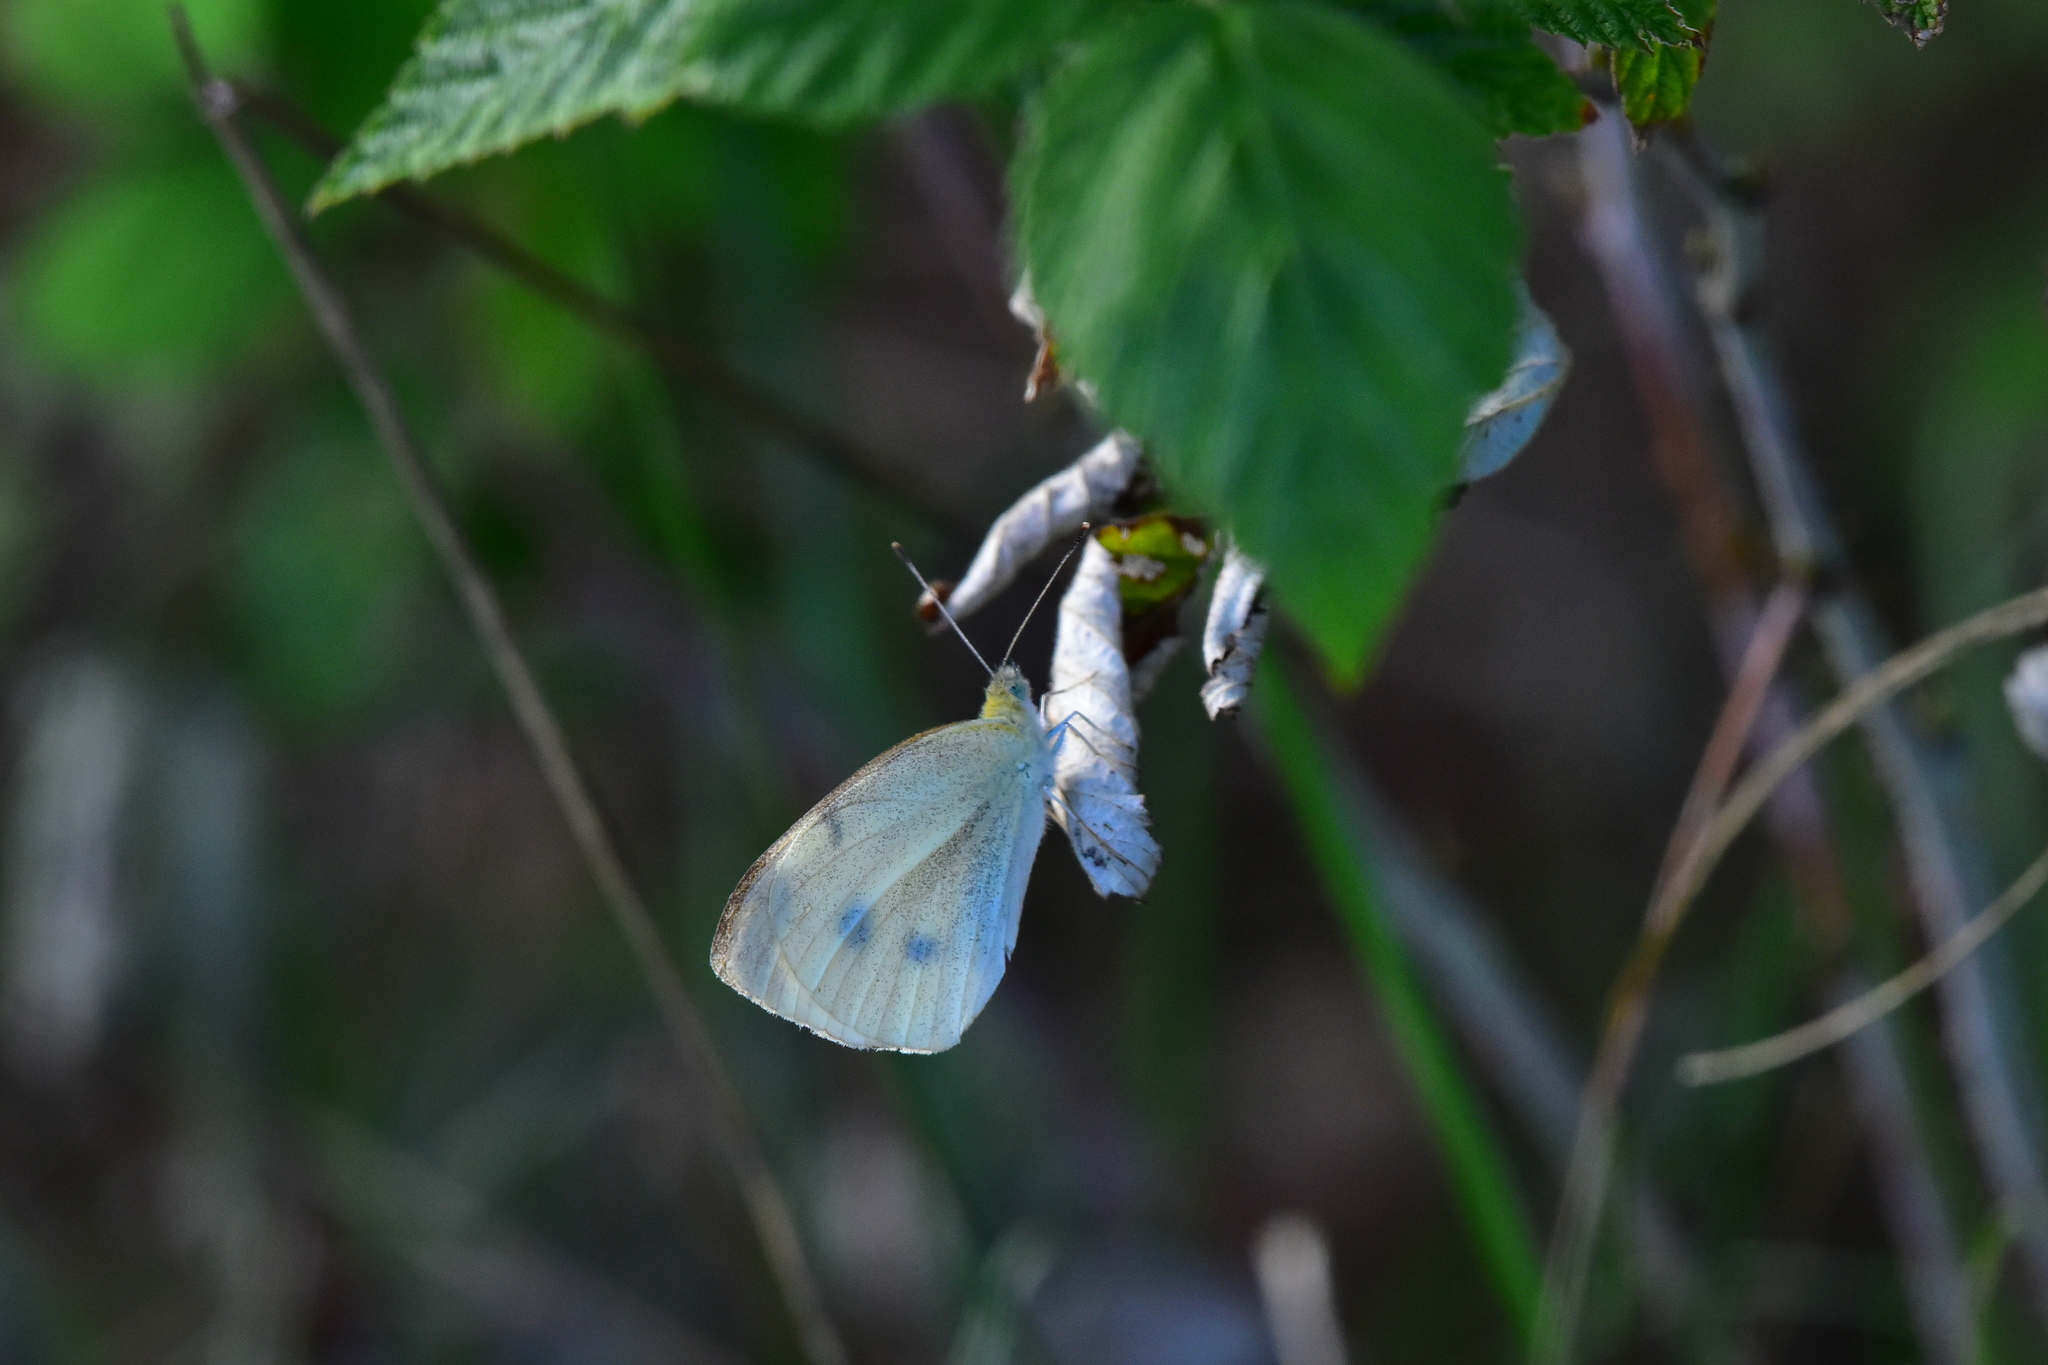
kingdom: Animalia
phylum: Arthropoda
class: Insecta
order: Lepidoptera
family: Pieridae
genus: Pieris
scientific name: Pieris rapae
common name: Small white
